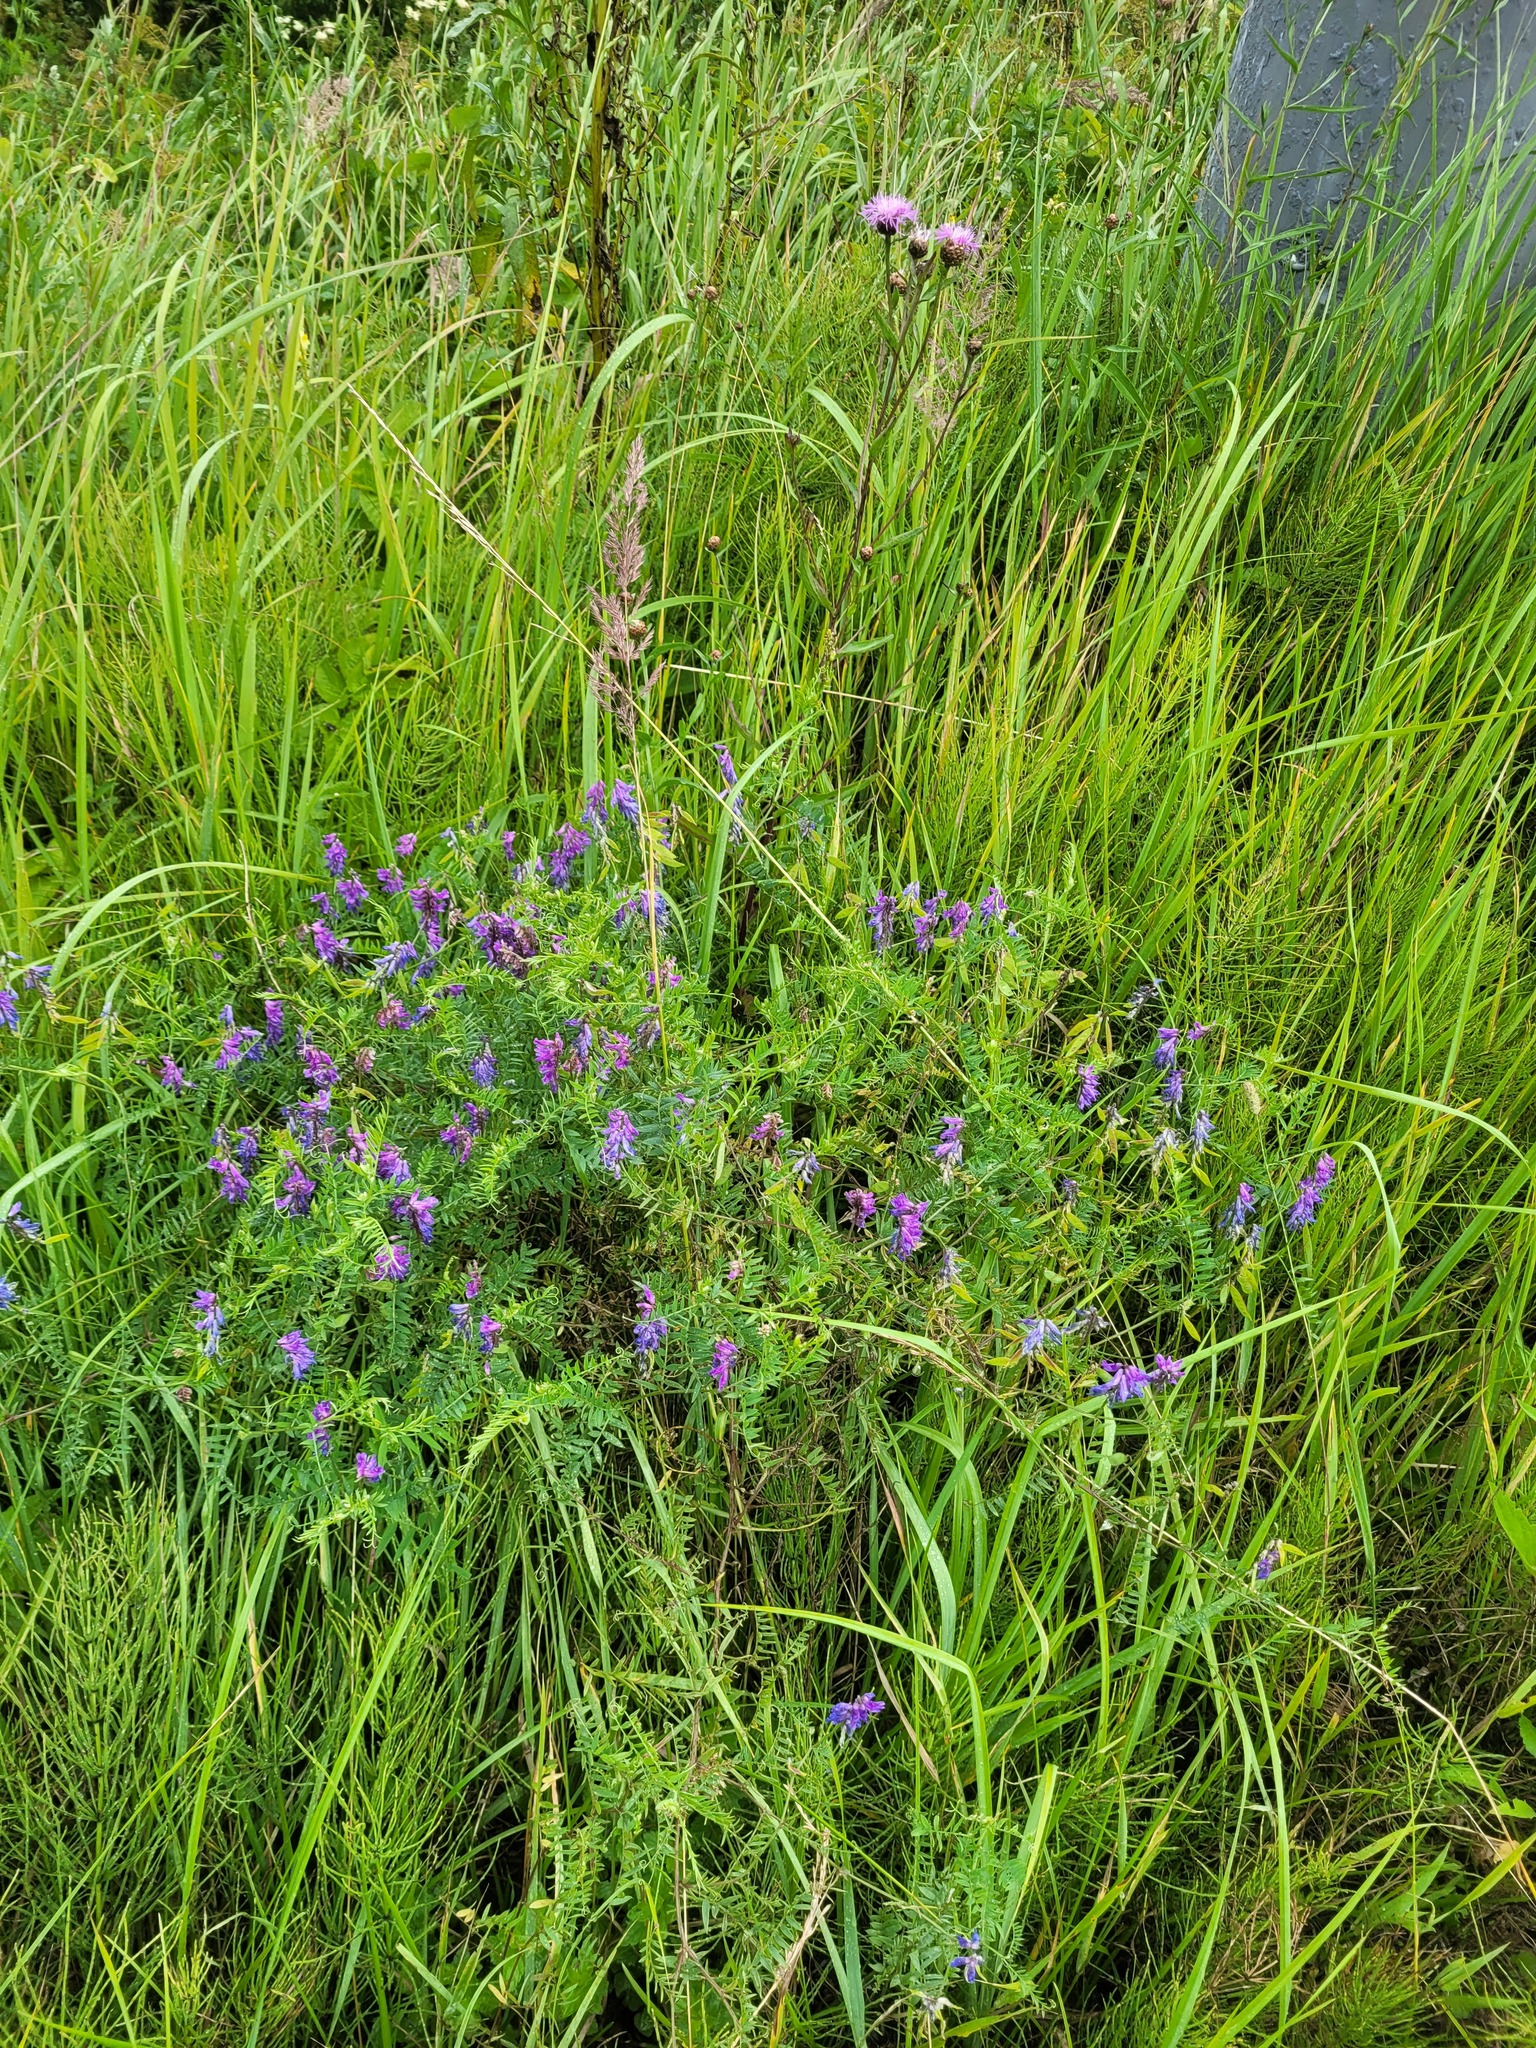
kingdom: Plantae
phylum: Tracheophyta
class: Magnoliopsida
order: Fabales
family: Fabaceae
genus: Vicia
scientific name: Vicia cracca
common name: Bird vetch
